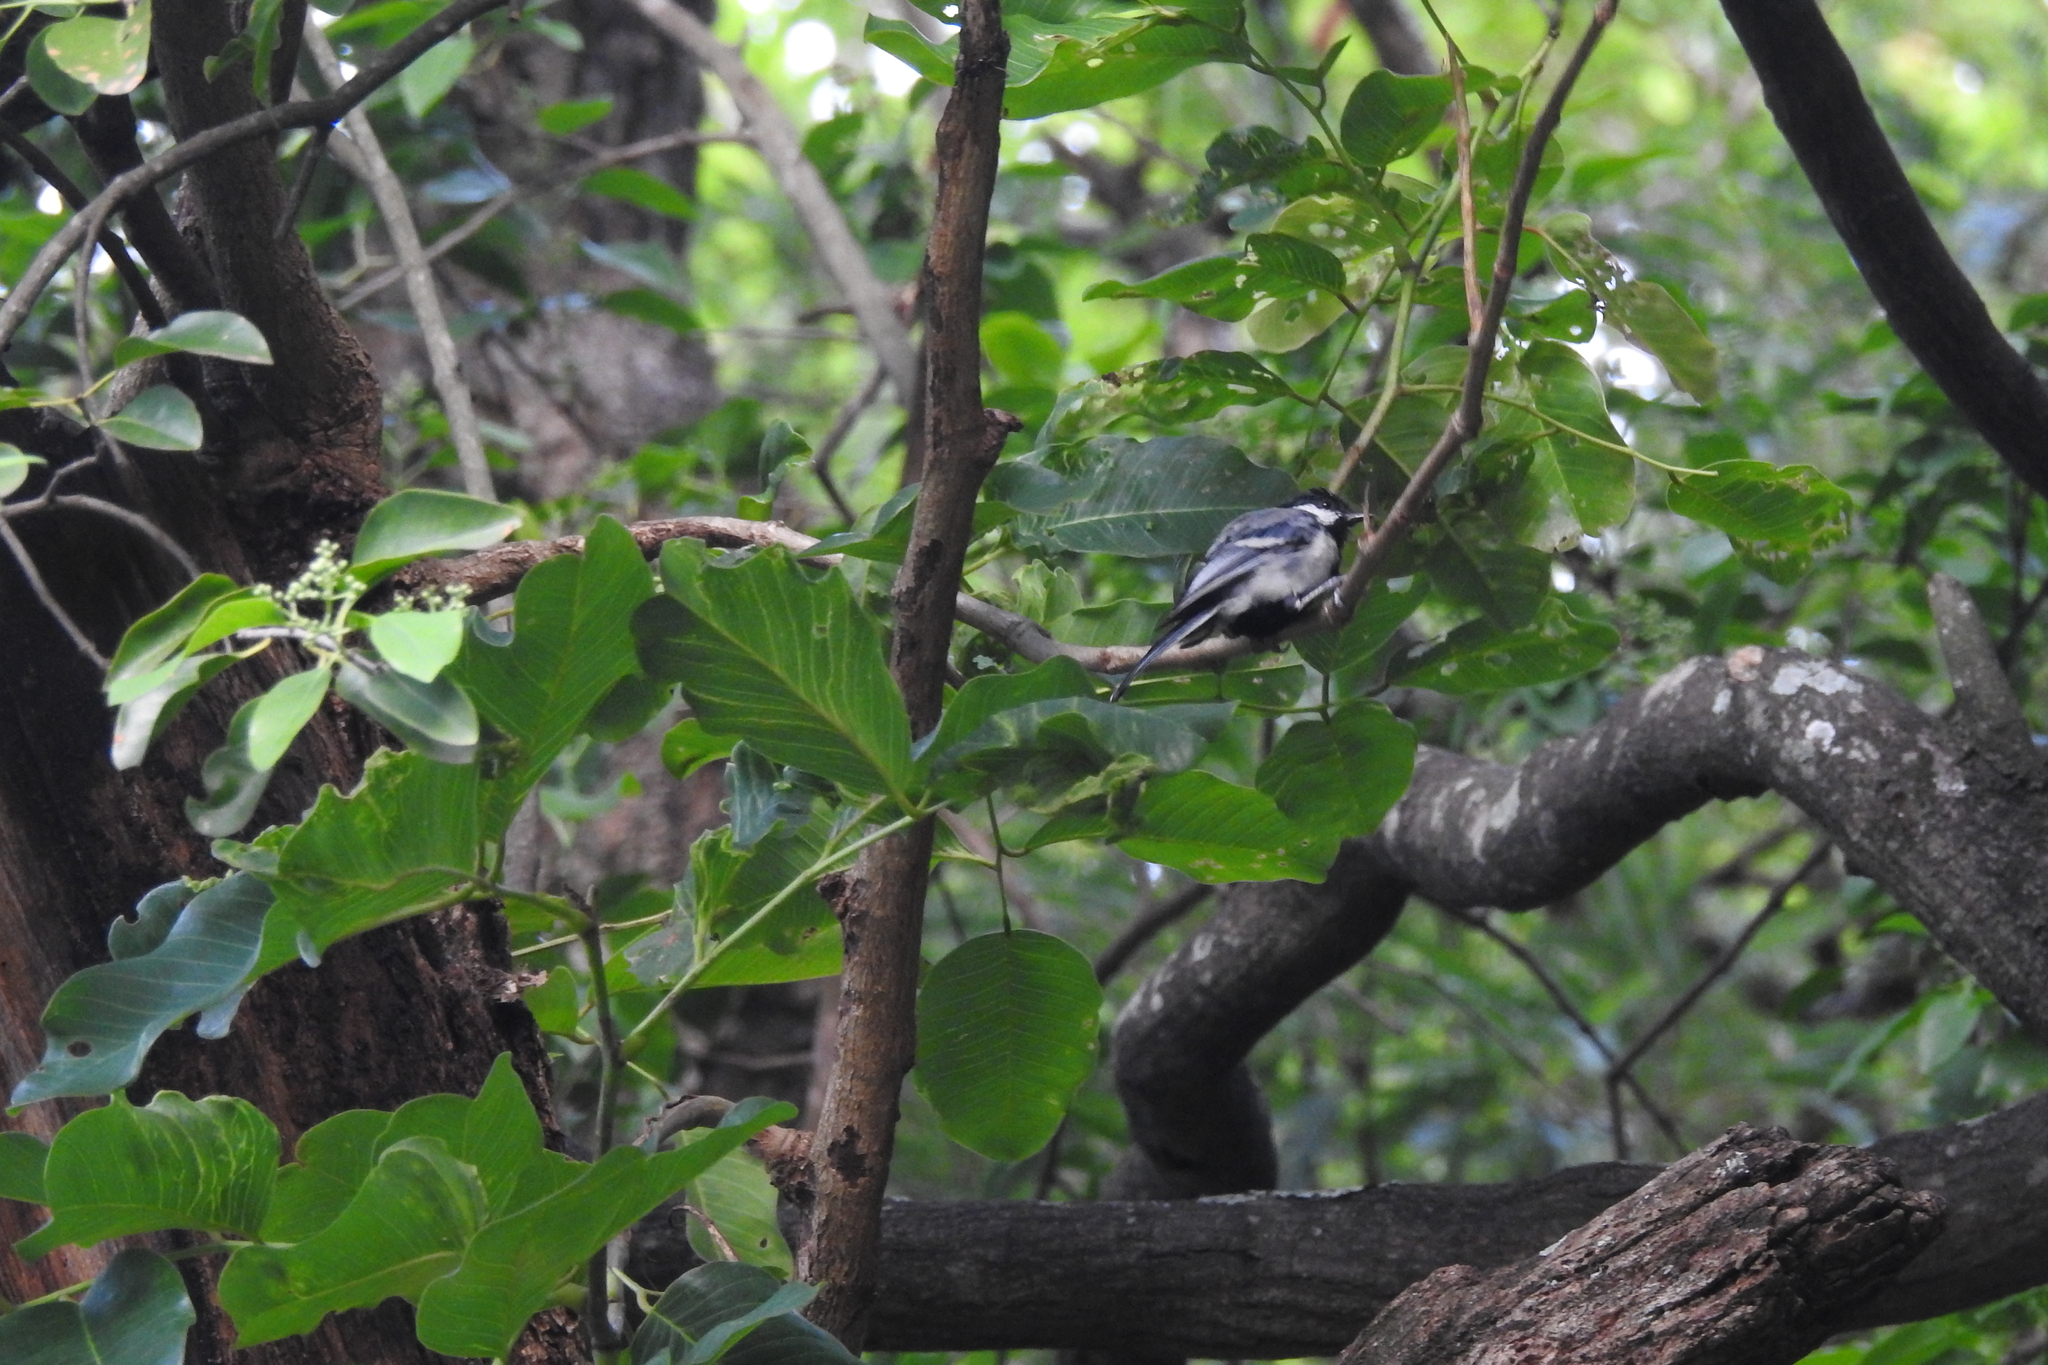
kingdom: Animalia
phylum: Chordata
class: Aves
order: Passeriformes
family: Paridae
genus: Parus
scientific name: Parus cinereus
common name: Cinereous tit
